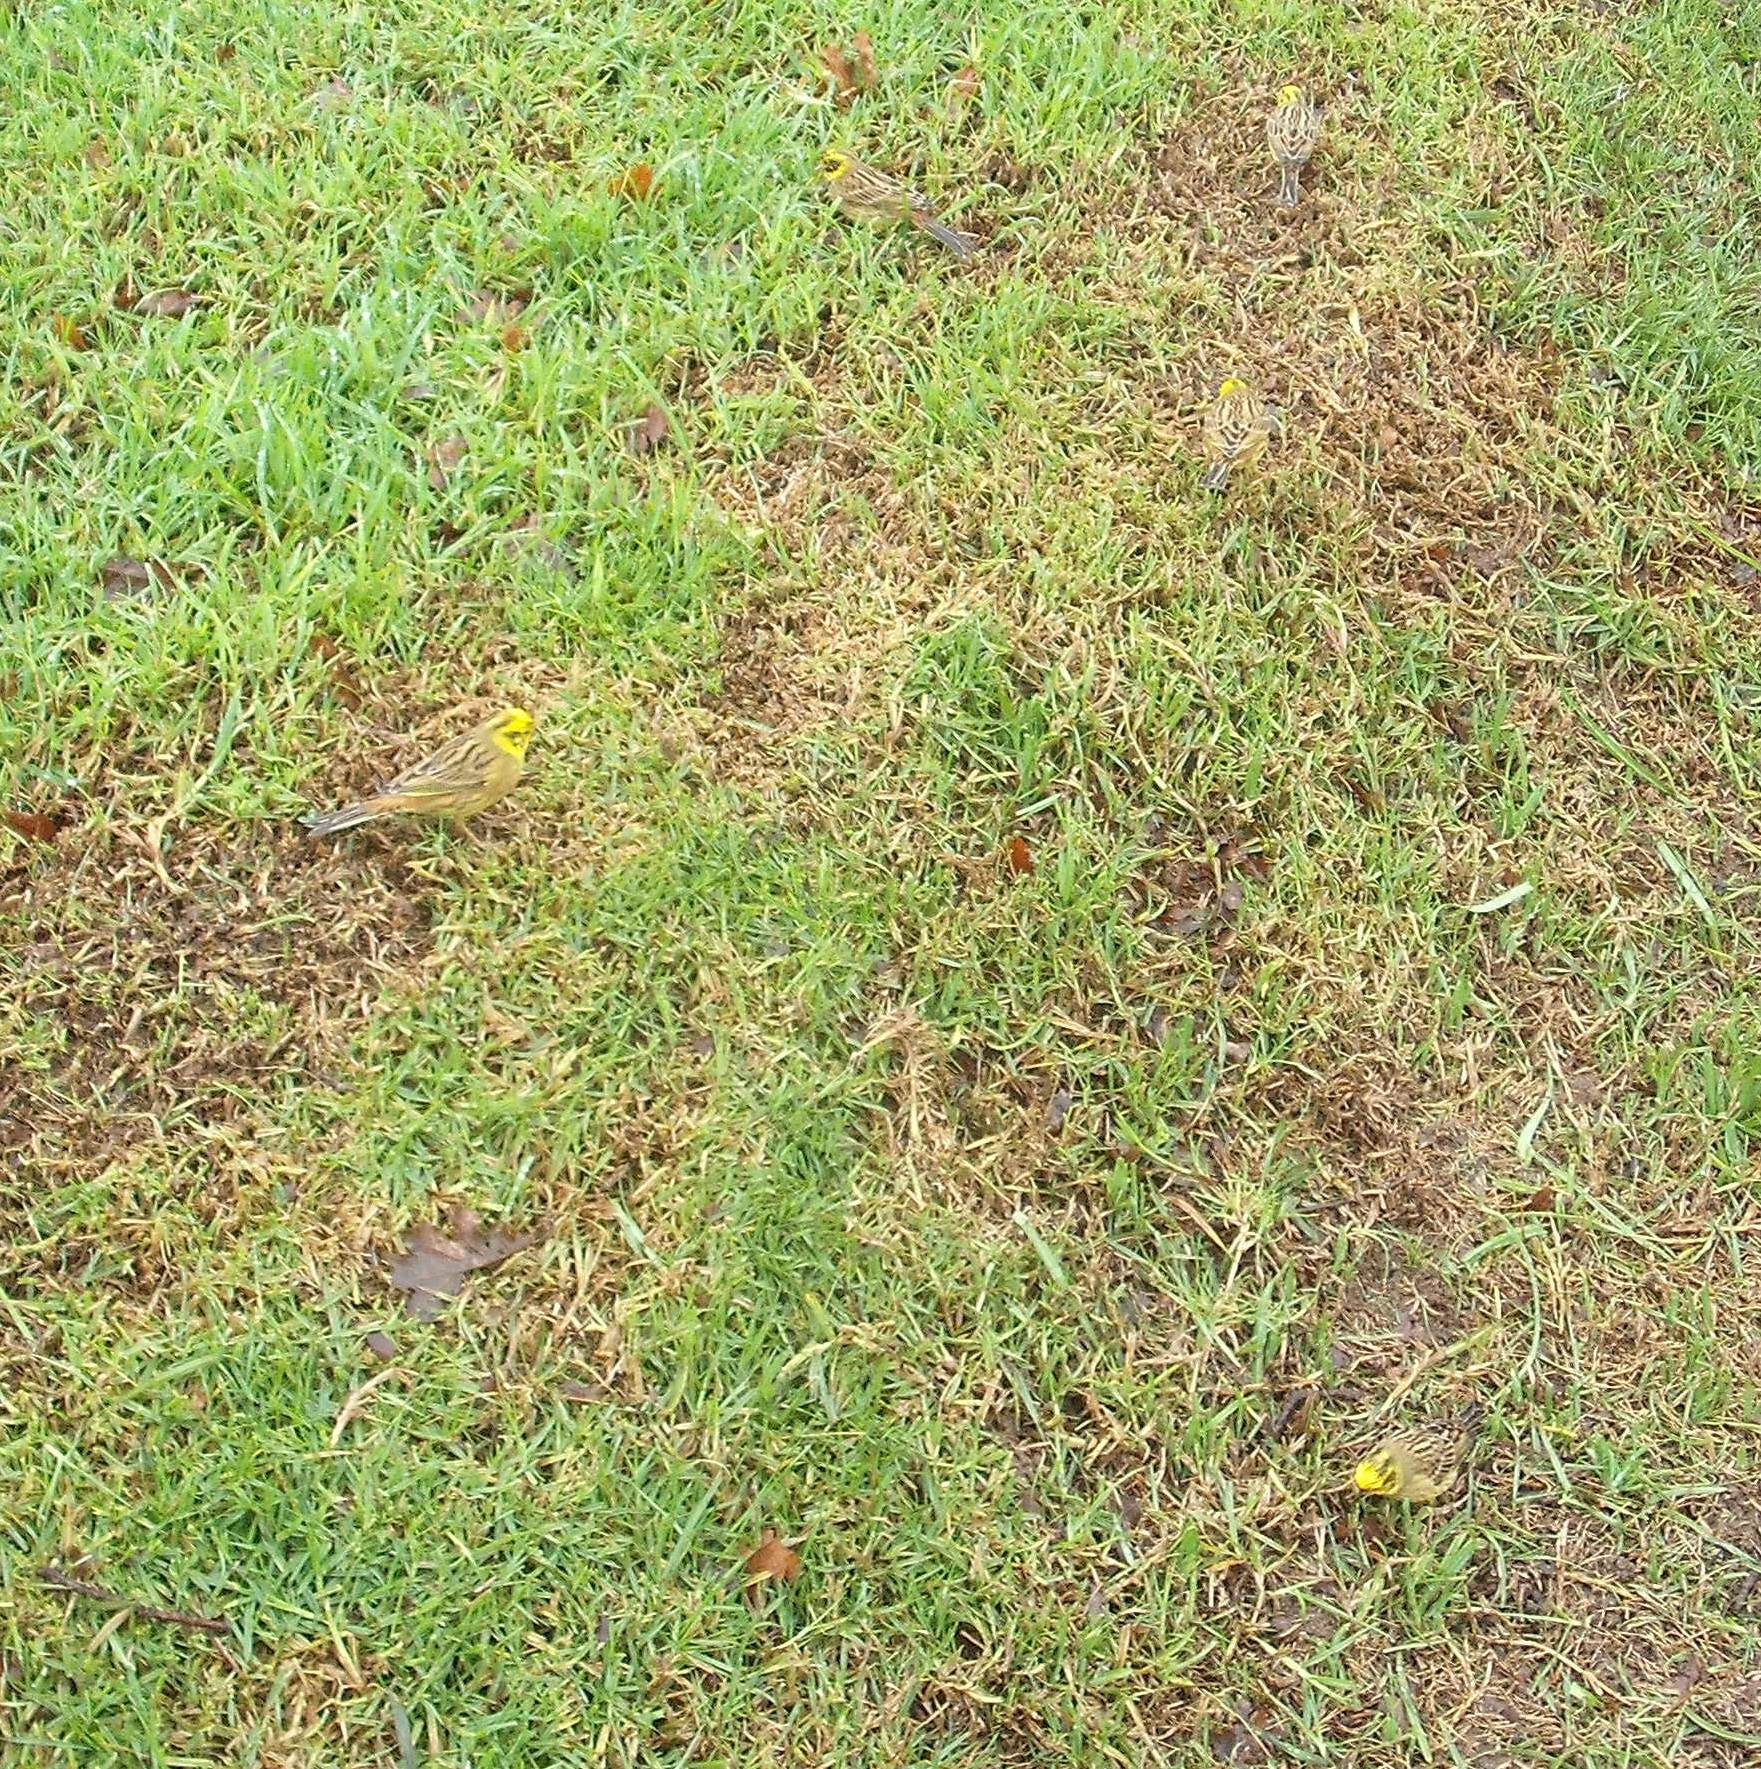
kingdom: Animalia
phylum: Chordata
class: Aves
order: Passeriformes
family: Emberizidae
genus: Emberiza
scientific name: Emberiza citrinella
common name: Yellowhammer
